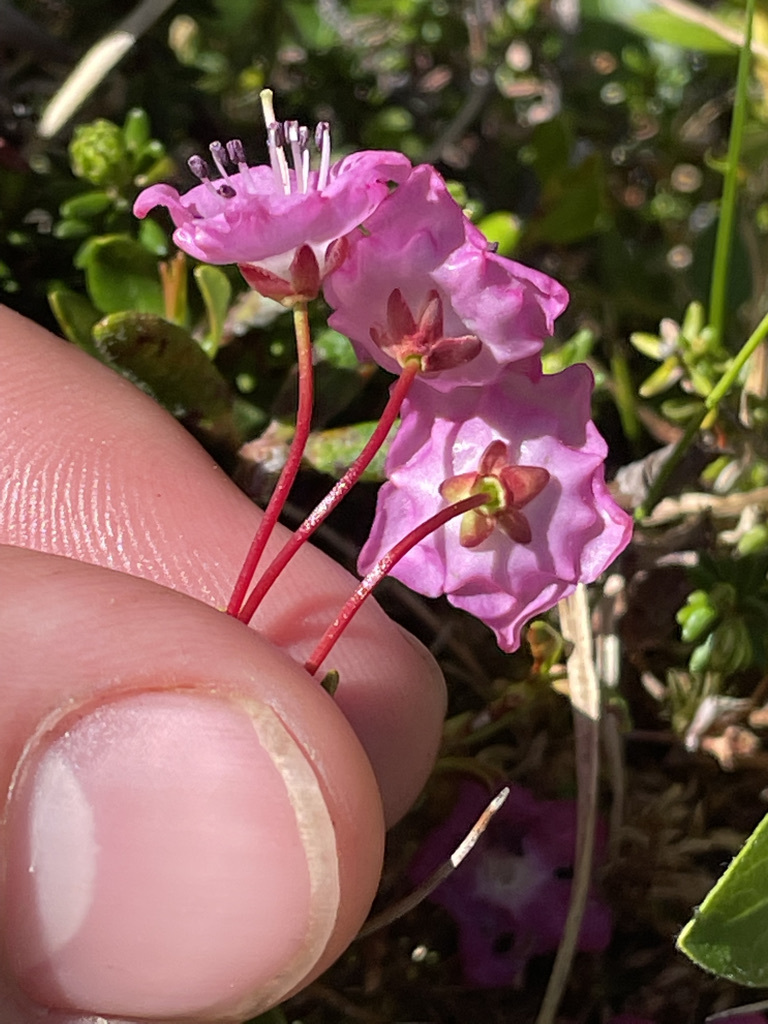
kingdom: Plantae
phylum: Tracheophyta
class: Magnoliopsida
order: Ericales
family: Ericaceae
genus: Kalmia
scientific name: Kalmia microphylla
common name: Alpine bog laurel
